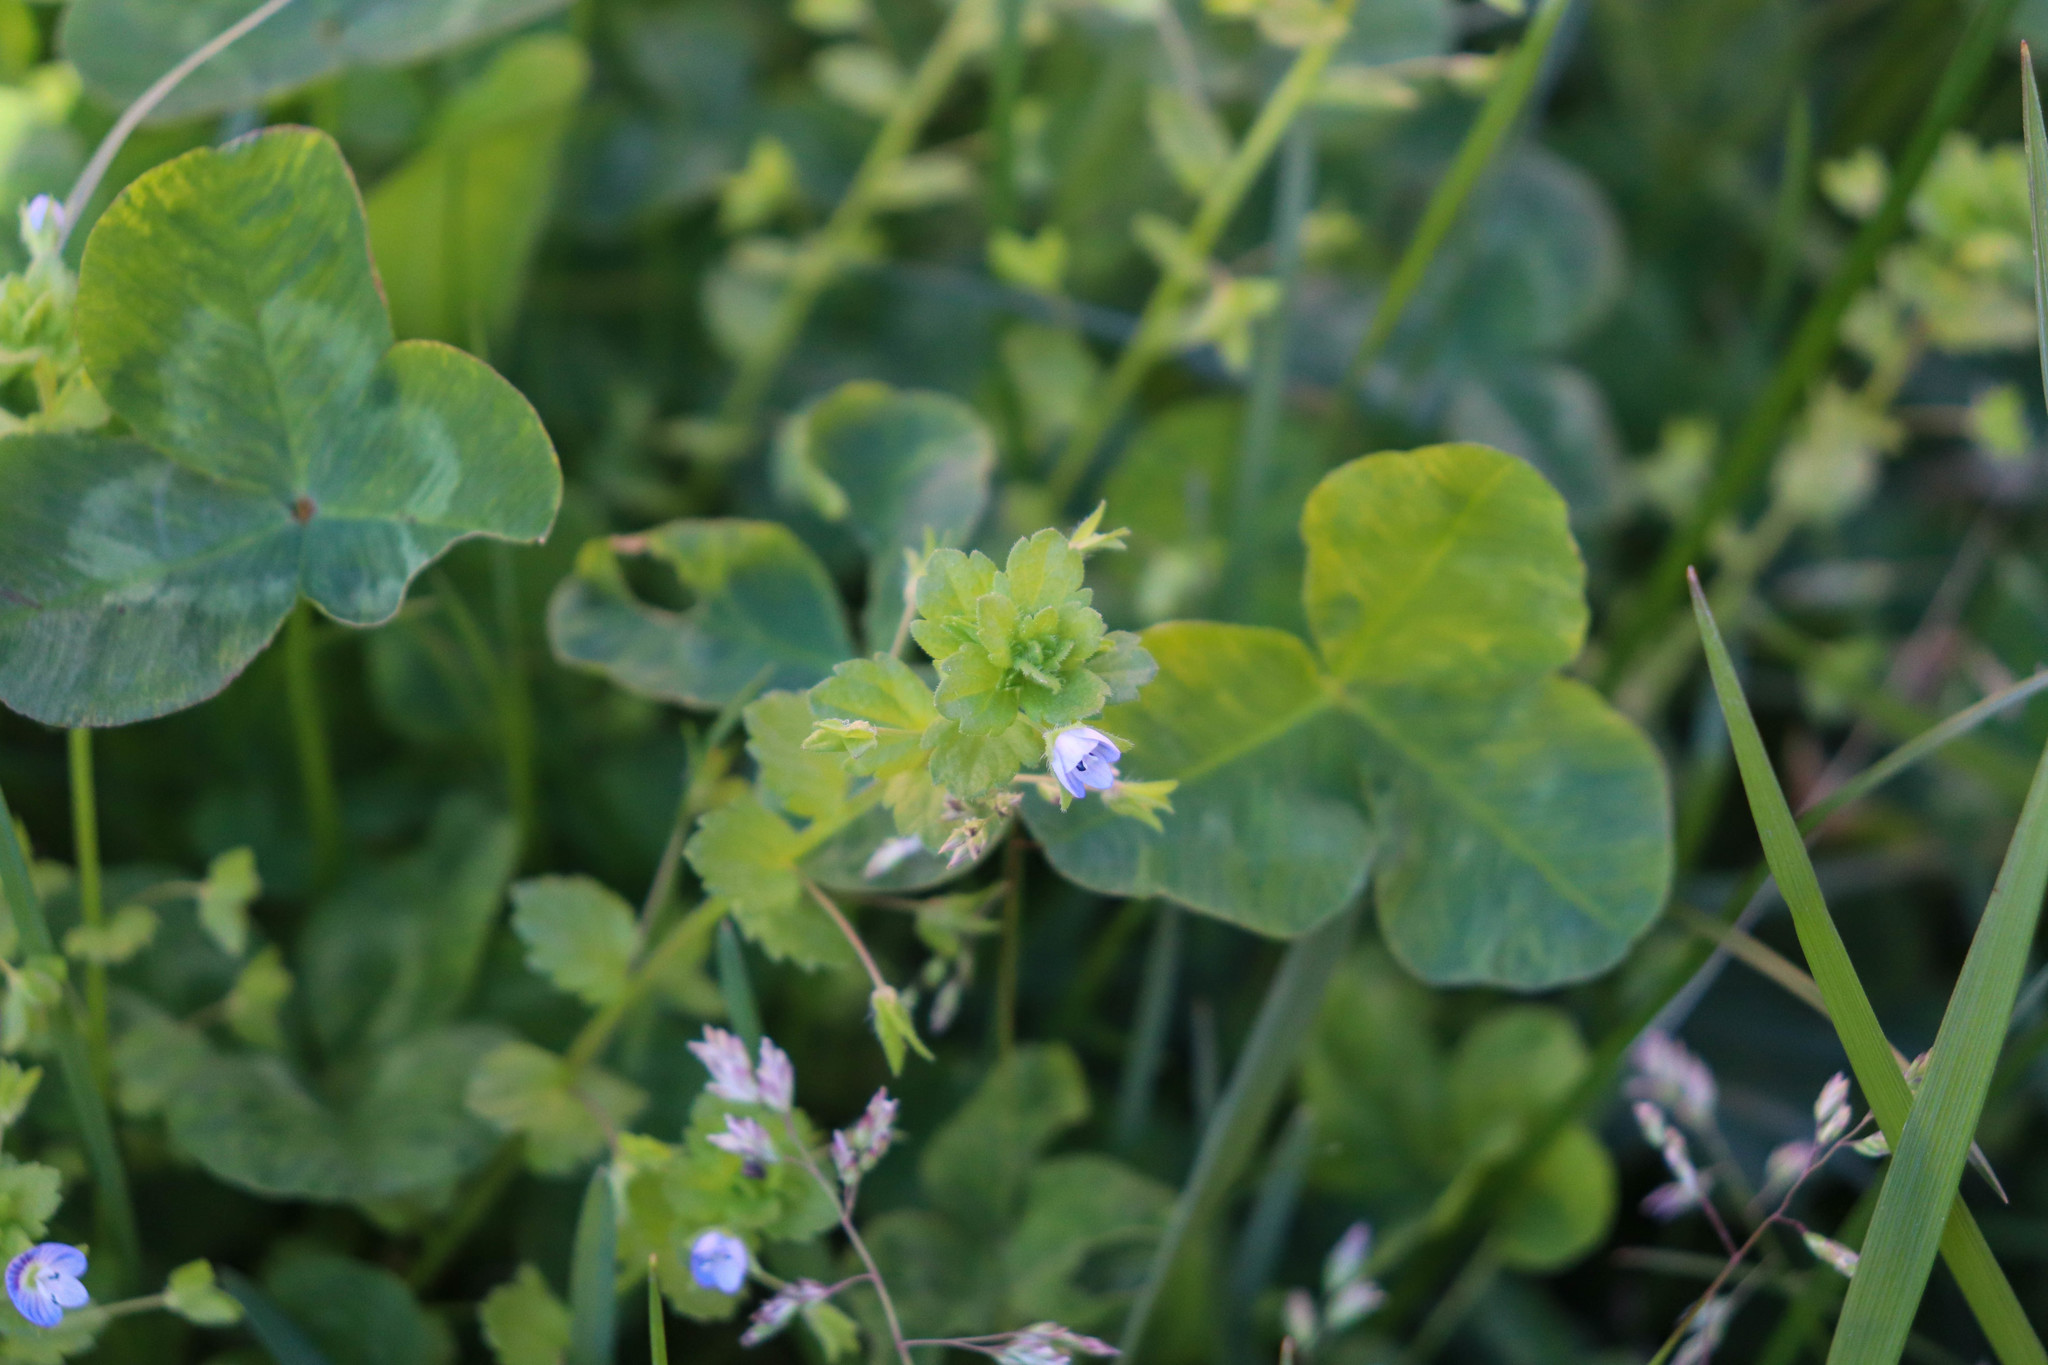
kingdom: Plantae
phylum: Tracheophyta
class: Magnoliopsida
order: Lamiales
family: Plantaginaceae
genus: Veronica
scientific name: Veronica persica
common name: Common field-speedwell
